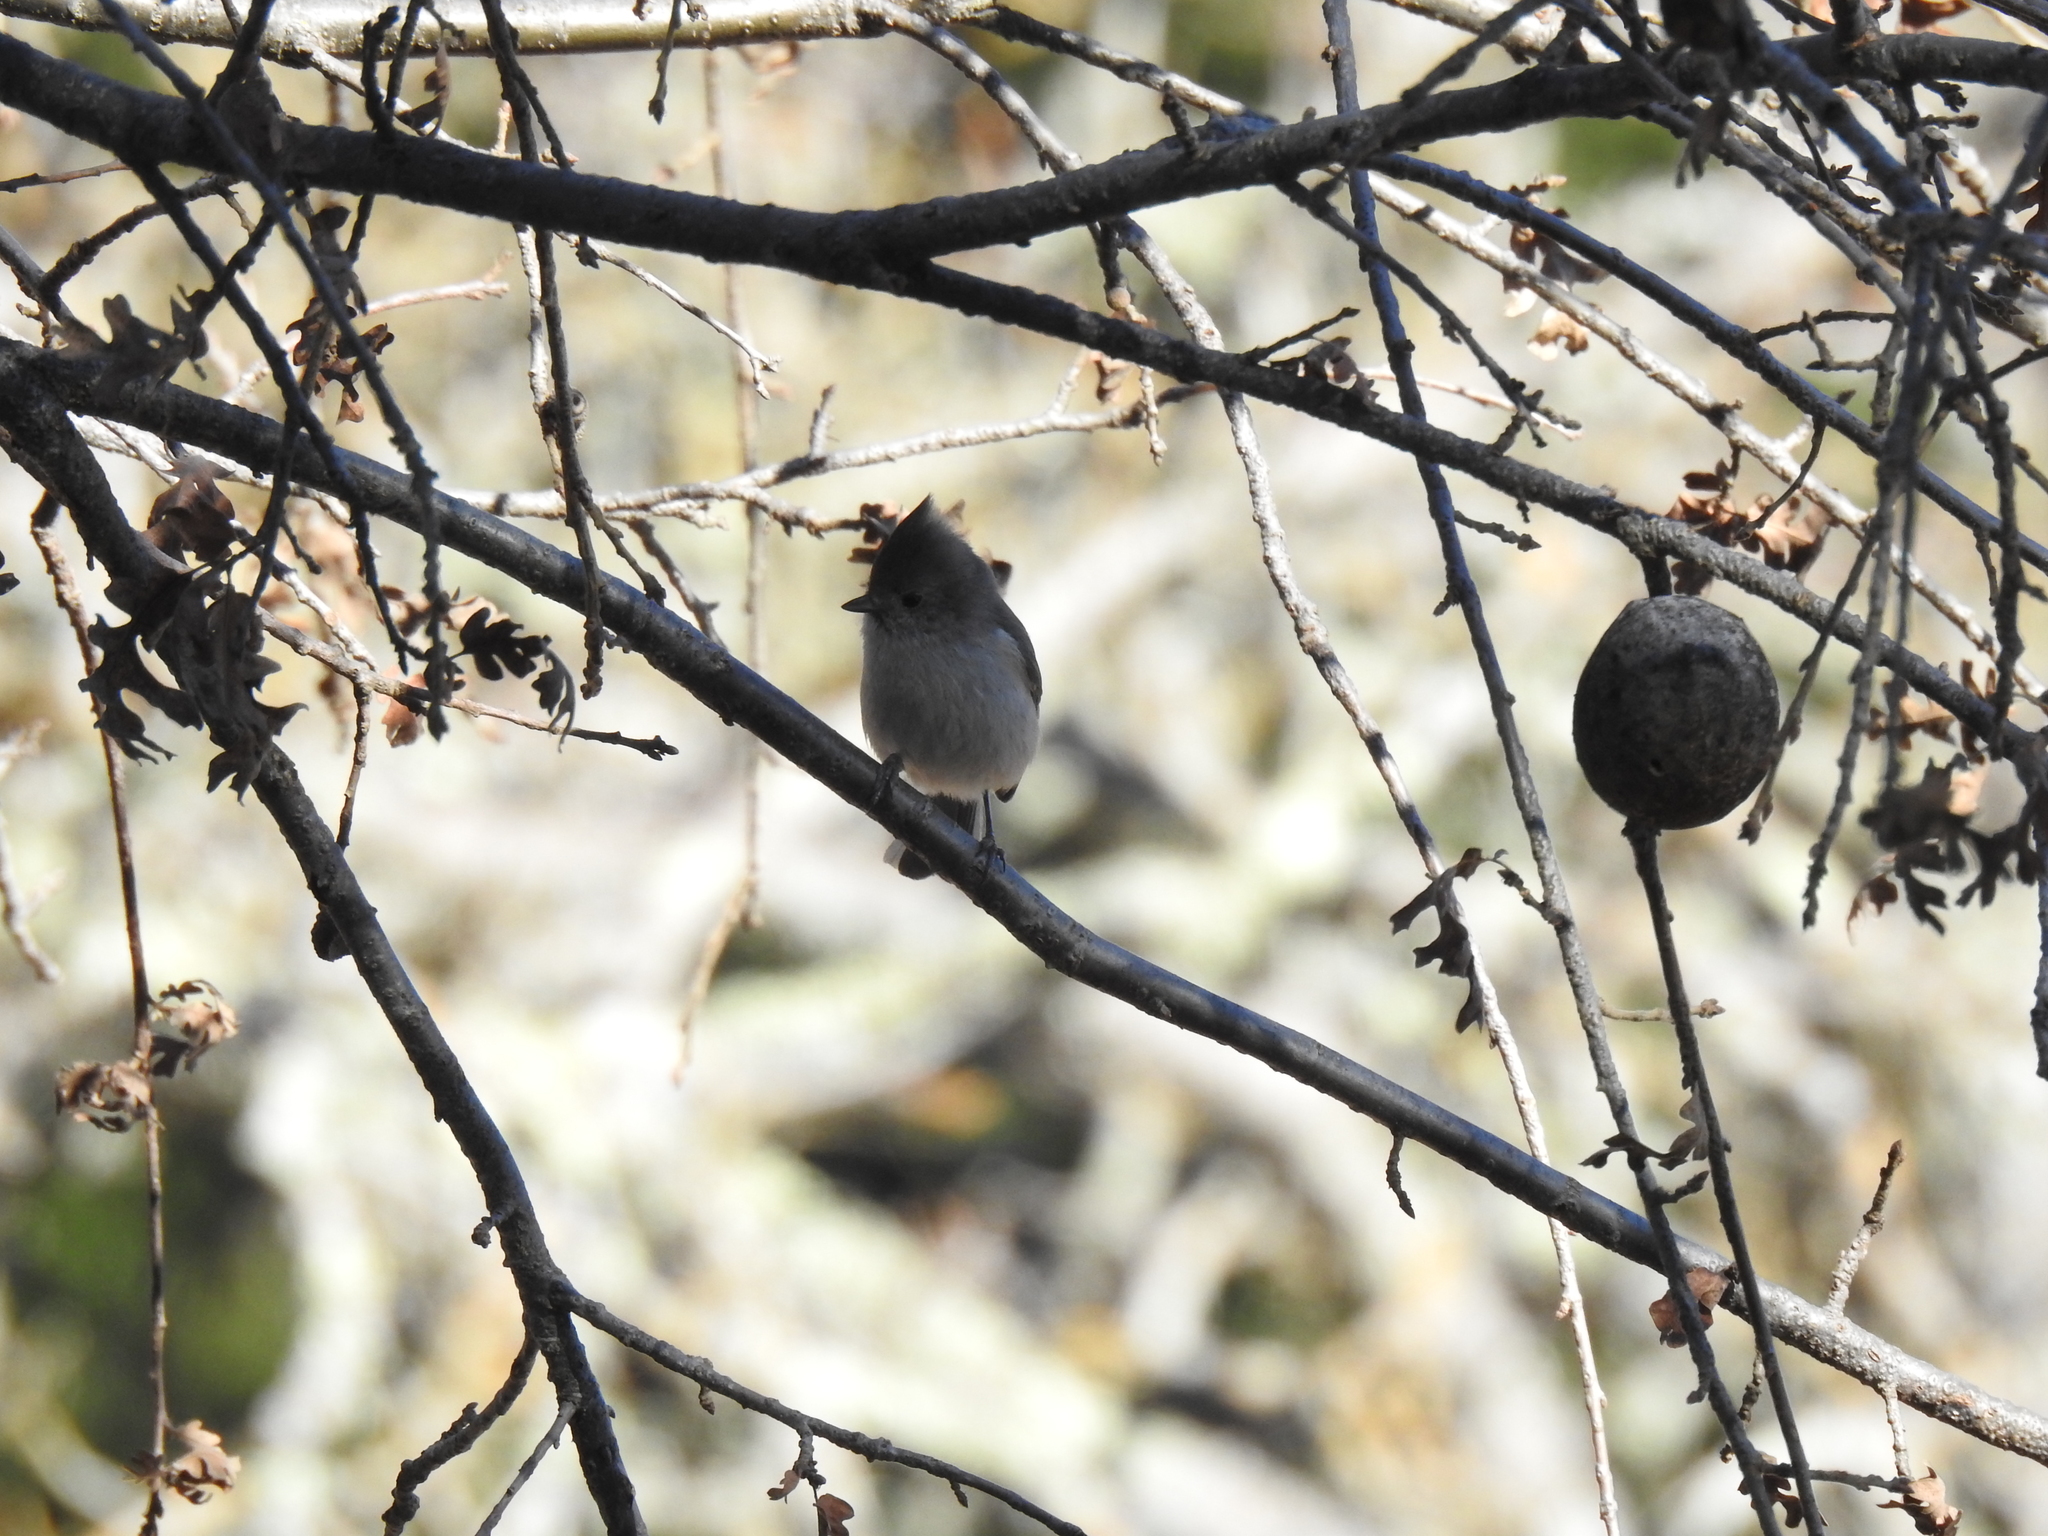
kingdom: Animalia
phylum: Chordata
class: Aves
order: Passeriformes
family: Paridae
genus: Baeolophus
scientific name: Baeolophus inornatus
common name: Oak titmouse
